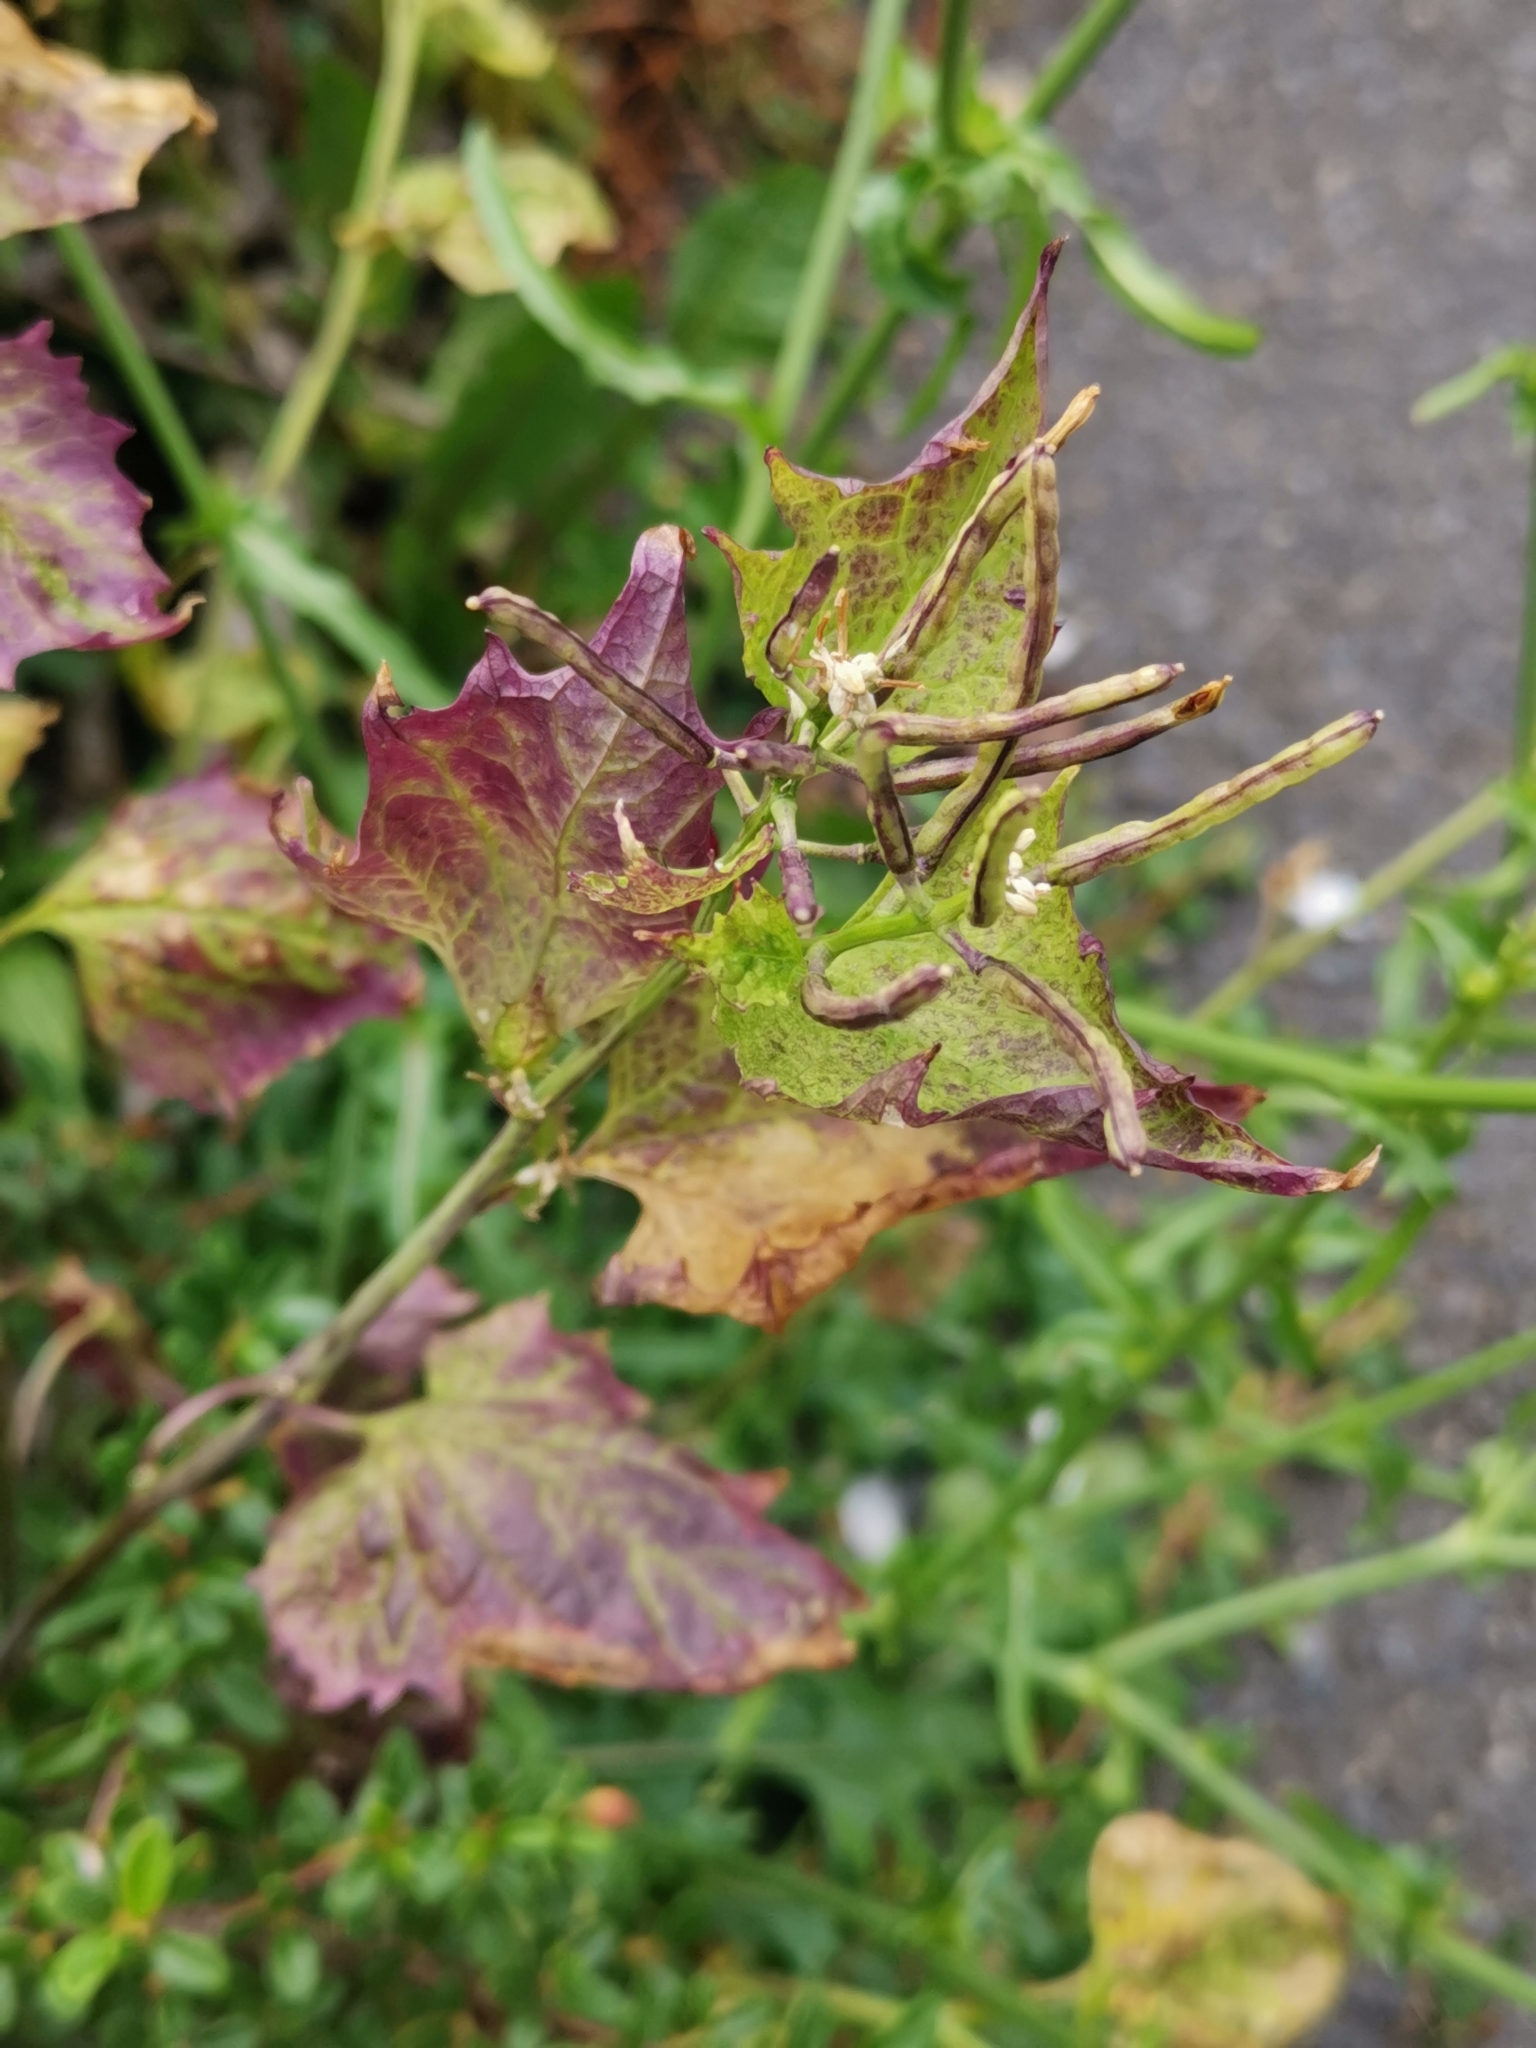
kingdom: Plantae
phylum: Tracheophyta
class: Magnoliopsida
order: Brassicales
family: Brassicaceae
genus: Alliaria
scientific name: Alliaria petiolata
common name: Garlic mustard
